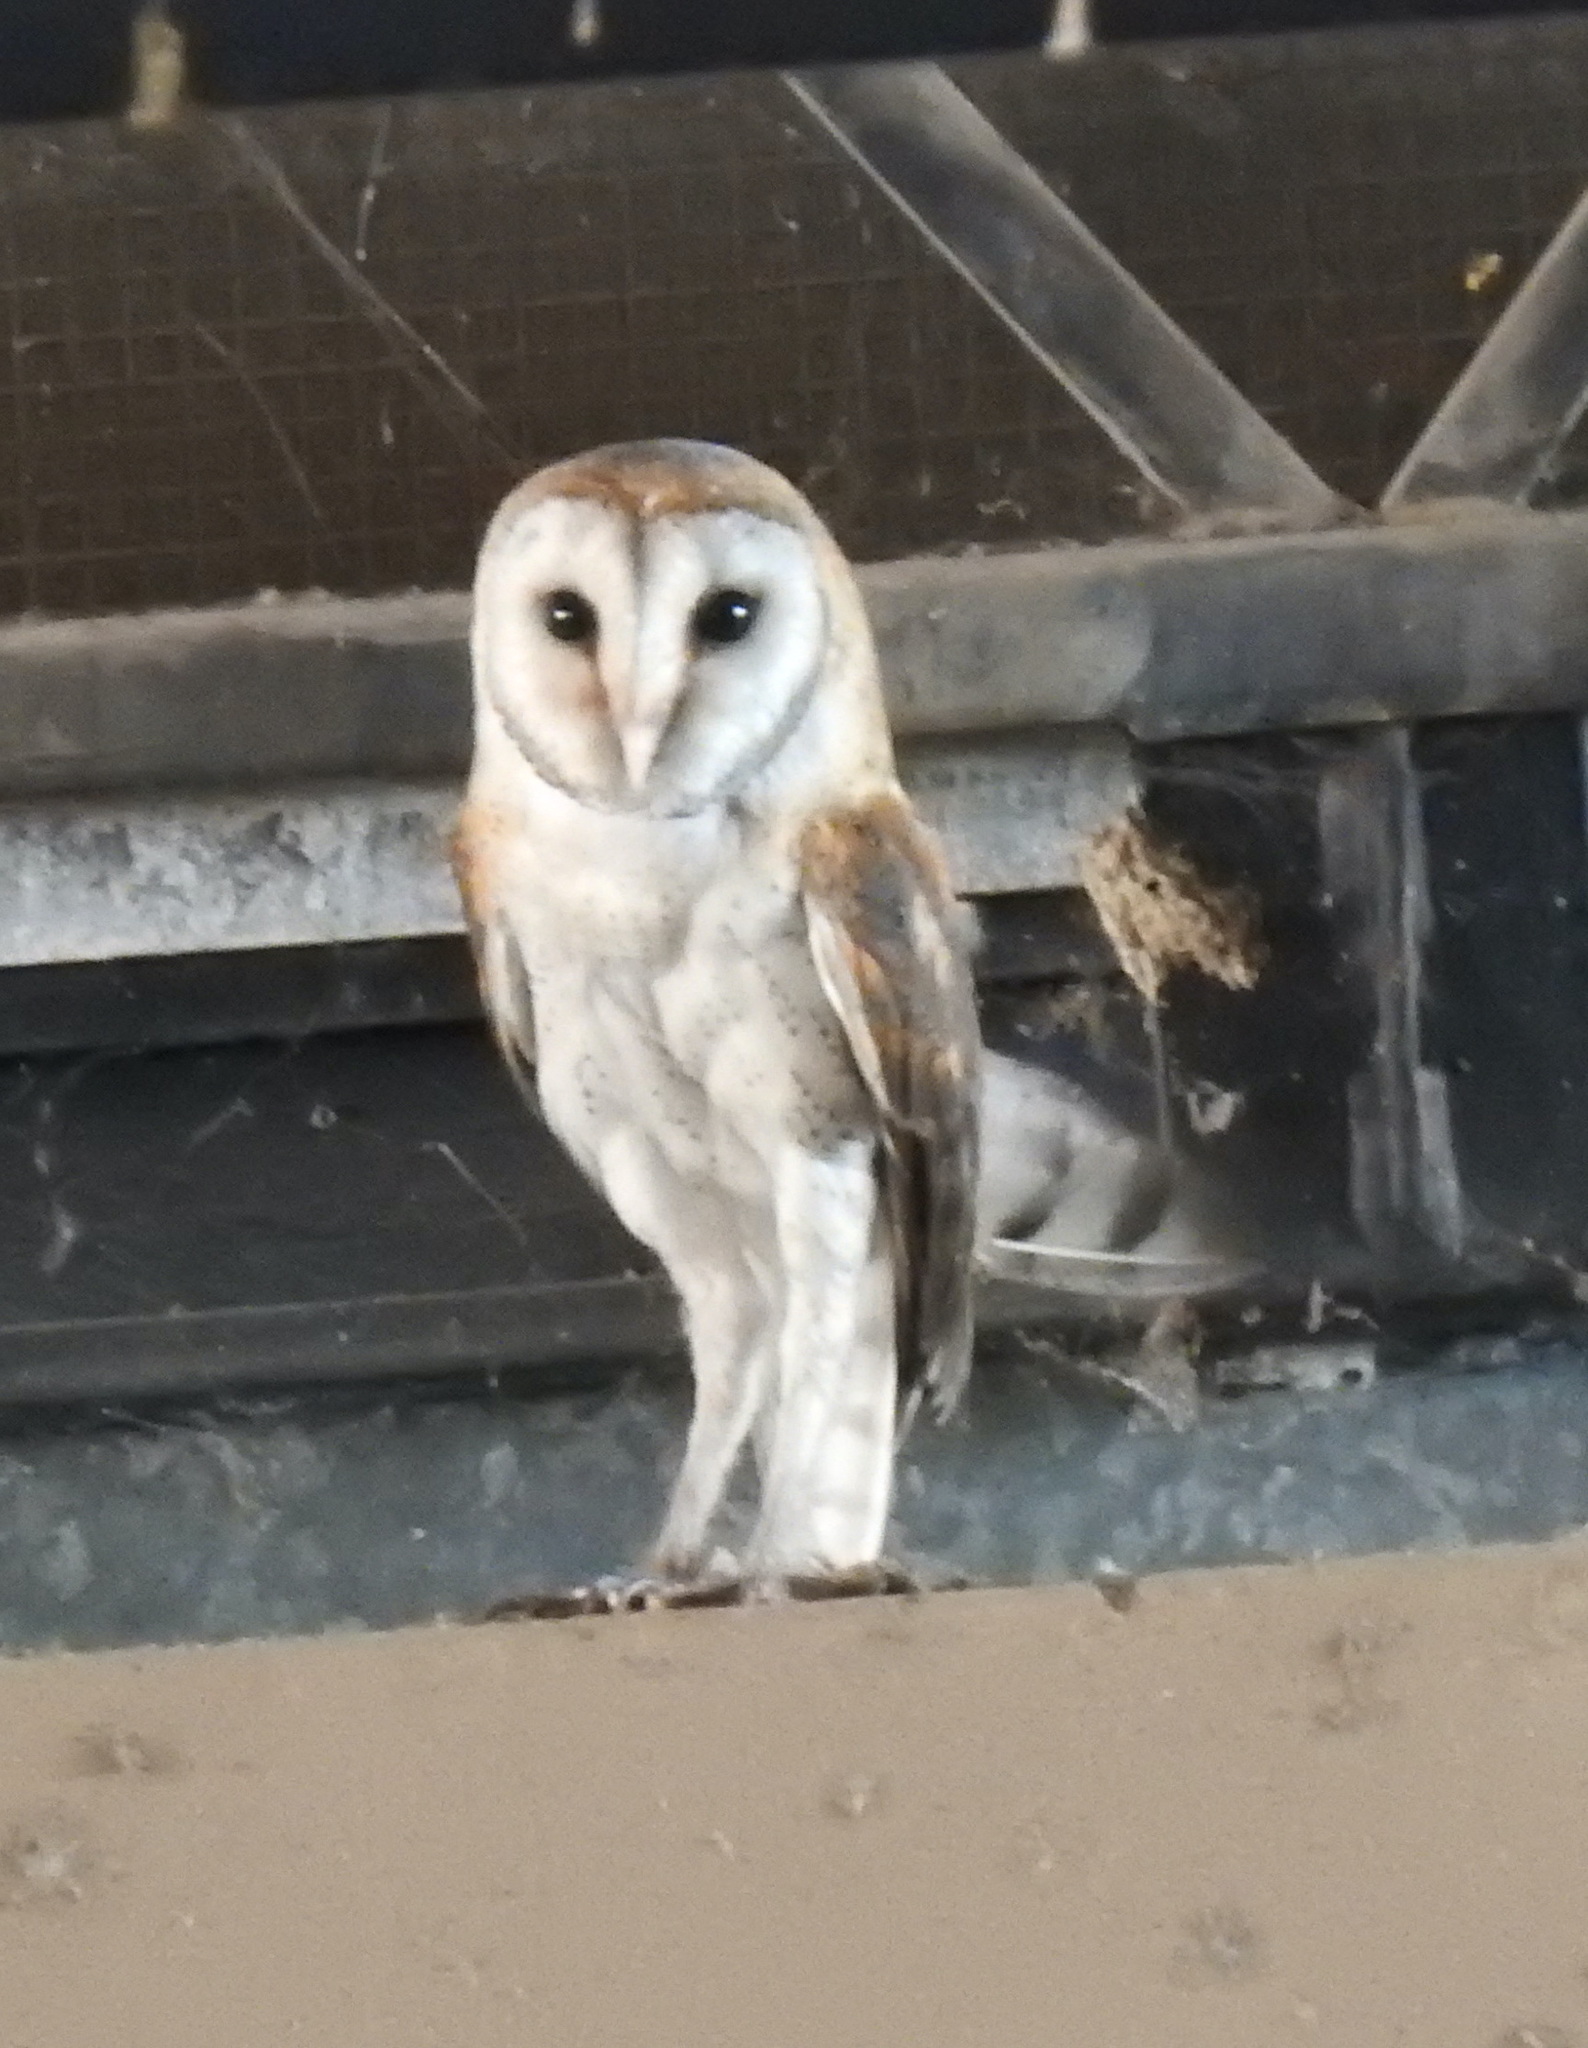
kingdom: Animalia
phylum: Chordata
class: Aves
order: Strigiformes
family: Tytonidae
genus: Tyto
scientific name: Tyto alba
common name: Barn owl
